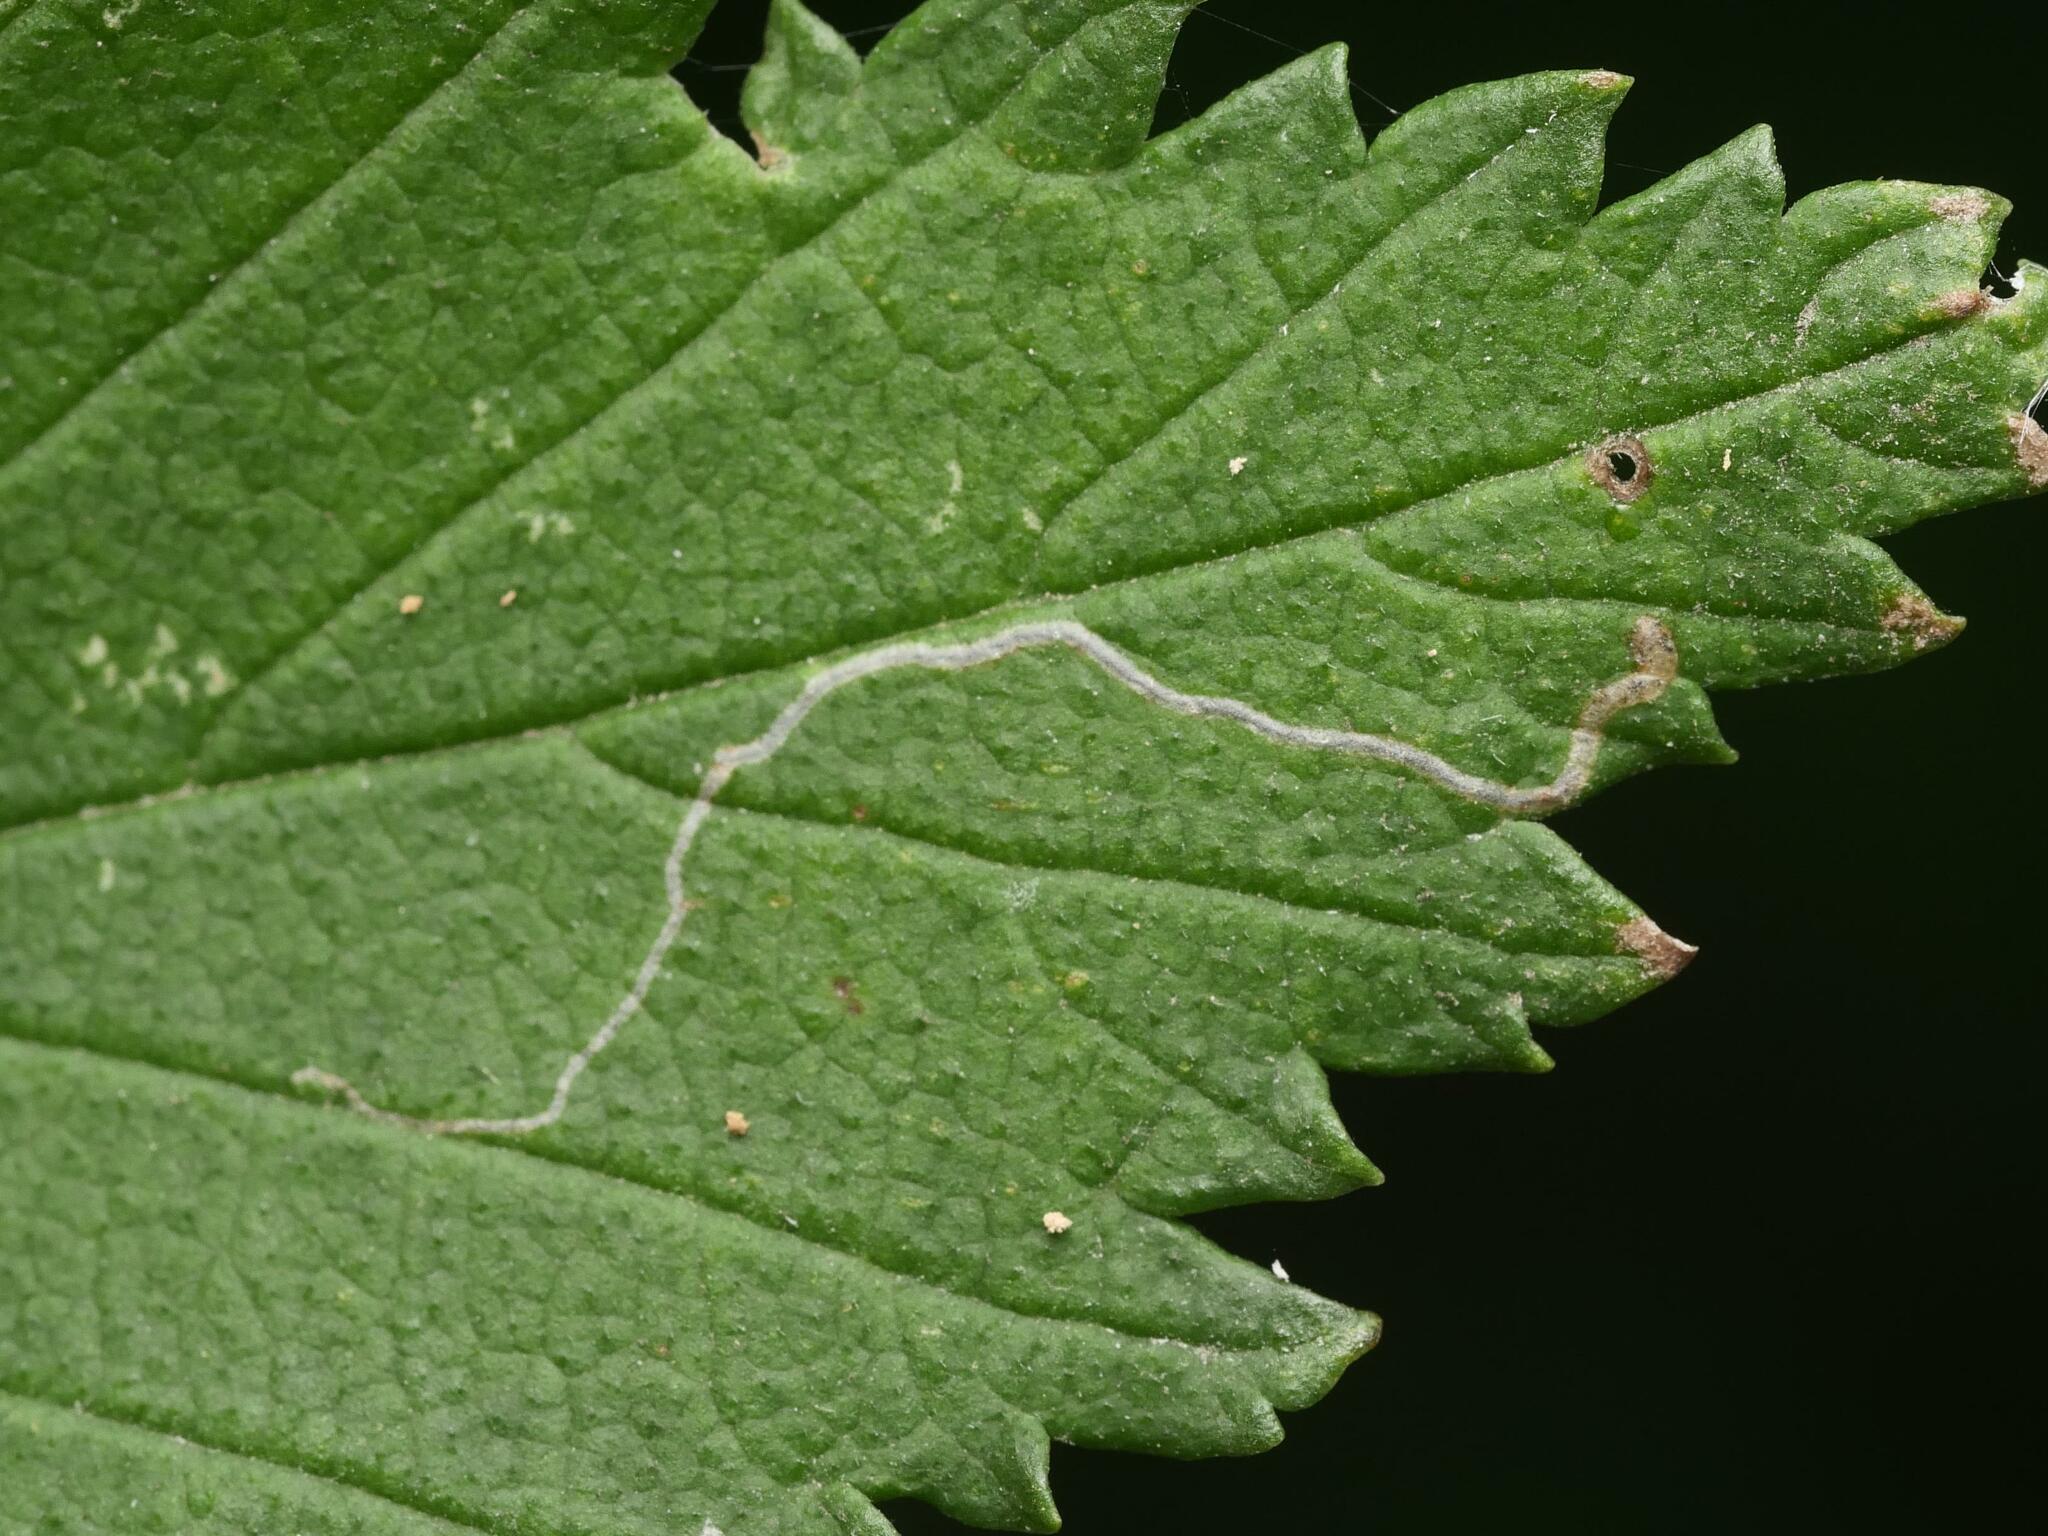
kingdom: Animalia
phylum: Arthropoda
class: Insecta
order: Lepidoptera
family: Nepticulidae
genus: Stigmella
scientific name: Stigmella ulmivora
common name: Barred elm pigmy
